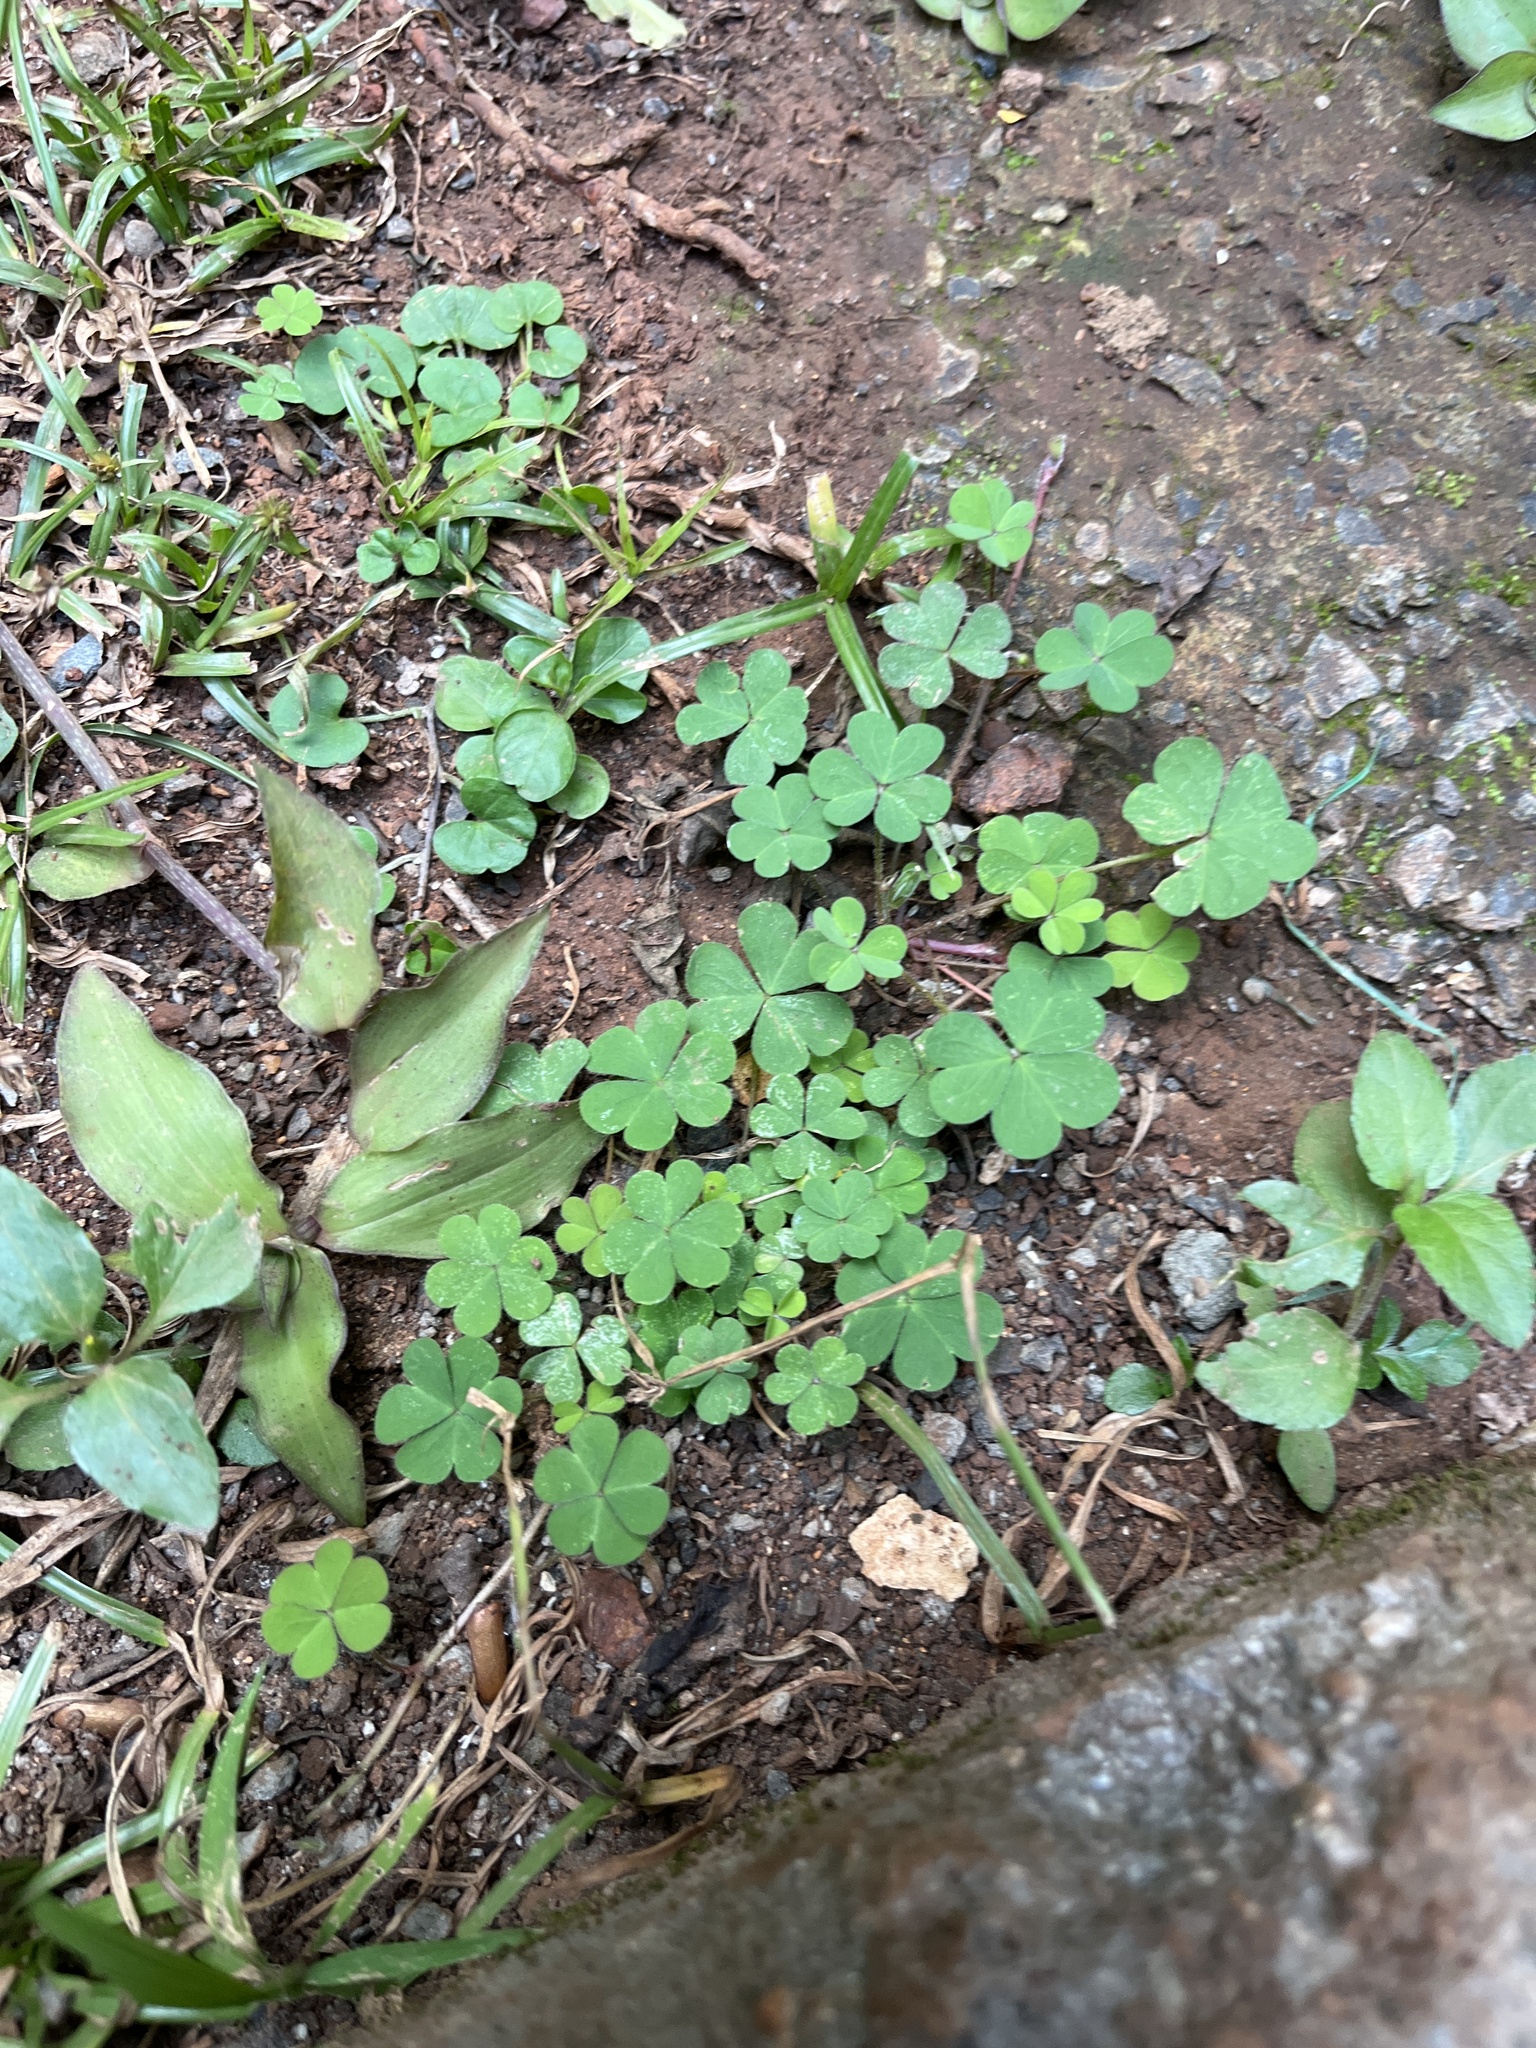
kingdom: Plantae
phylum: Tracheophyta
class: Magnoliopsida
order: Oxalidales
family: Oxalidaceae
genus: Oxalis
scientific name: Oxalis corniculata
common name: Procumbent yellow-sorrel
